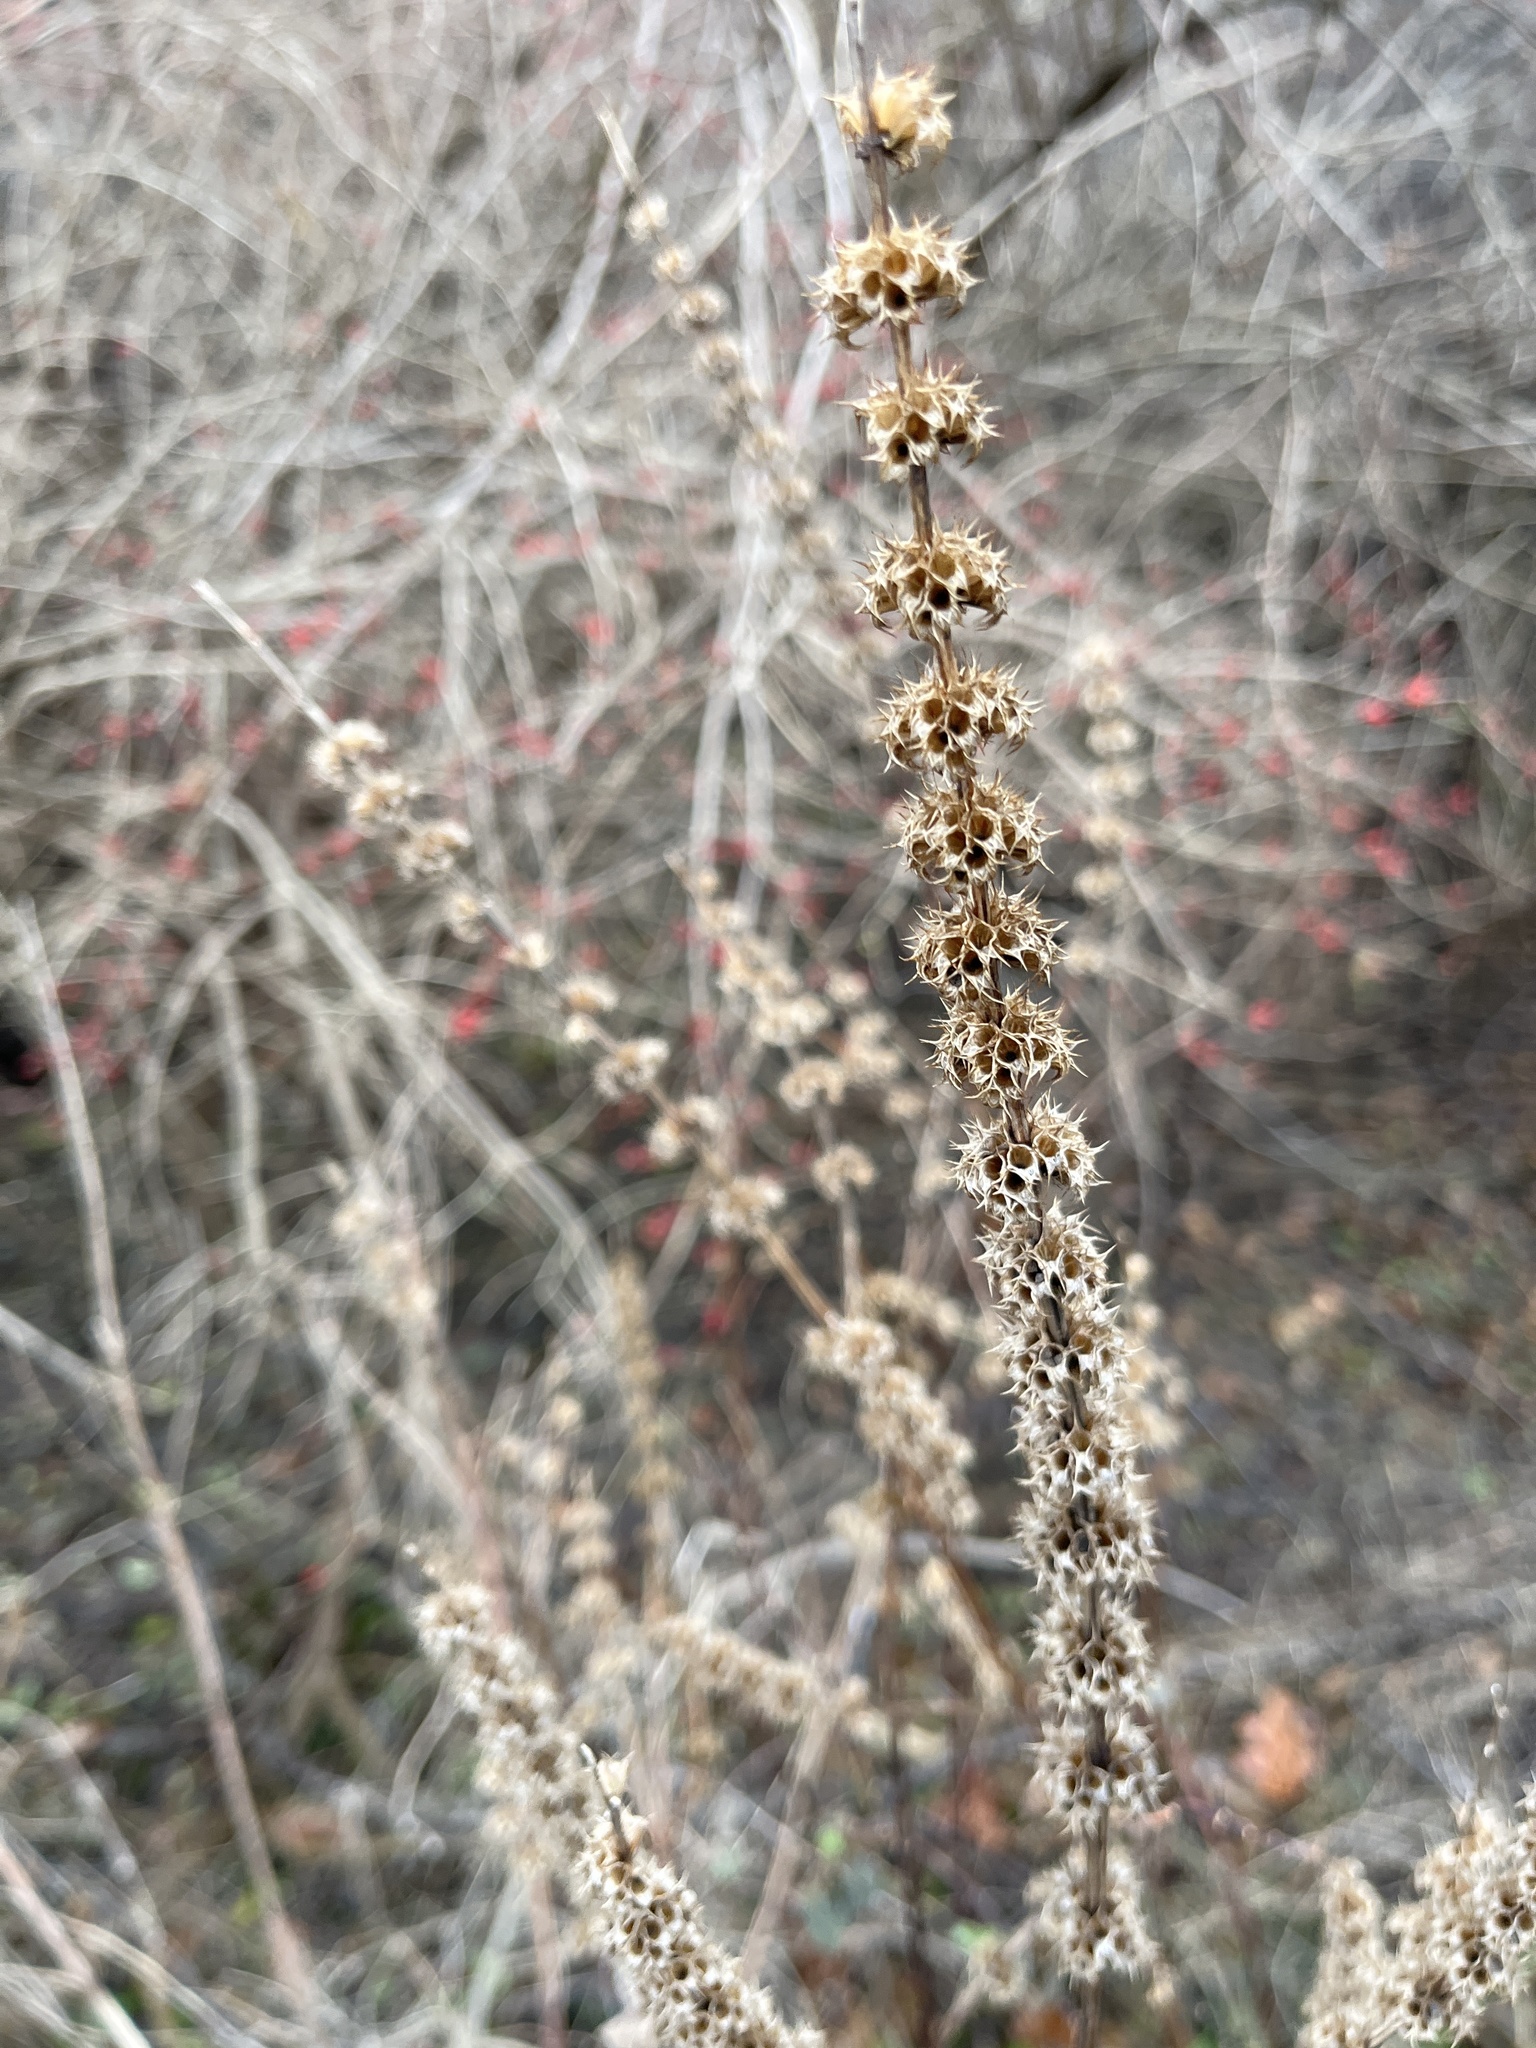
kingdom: Plantae
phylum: Tracheophyta
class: Magnoliopsida
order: Lamiales
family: Lamiaceae
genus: Leonurus
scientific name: Leonurus cardiaca
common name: Motherwort
